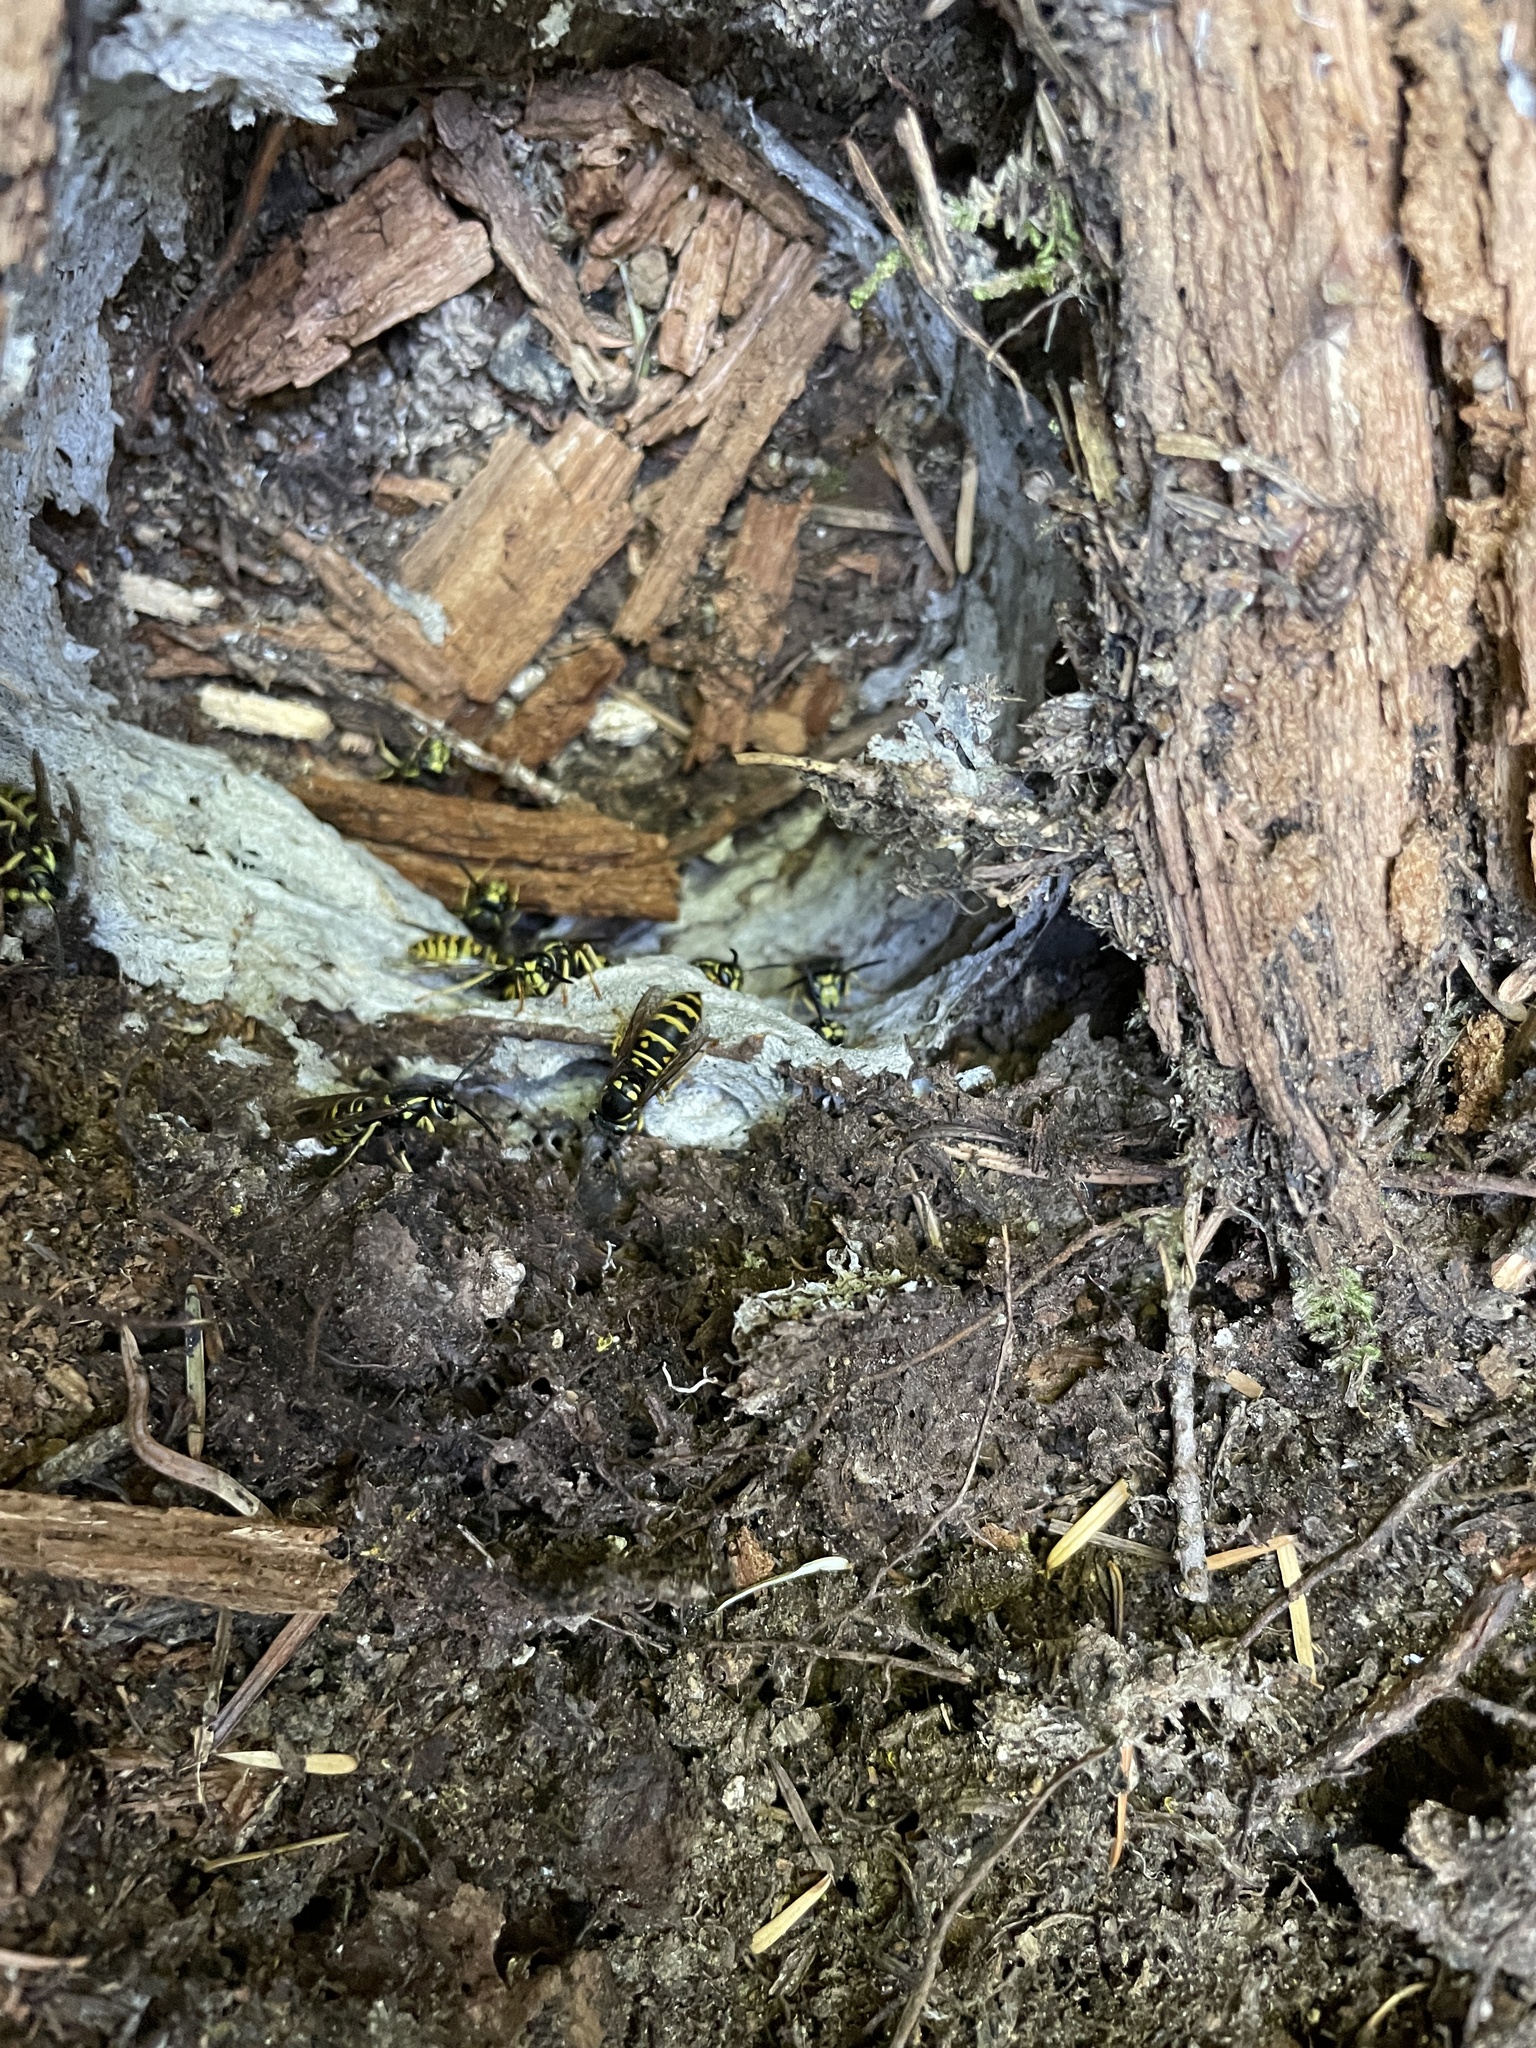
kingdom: Animalia
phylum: Arthropoda
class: Insecta
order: Hymenoptera
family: Vespidae
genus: Vespula
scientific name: Vespula acadica
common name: Forest yellowjacket
